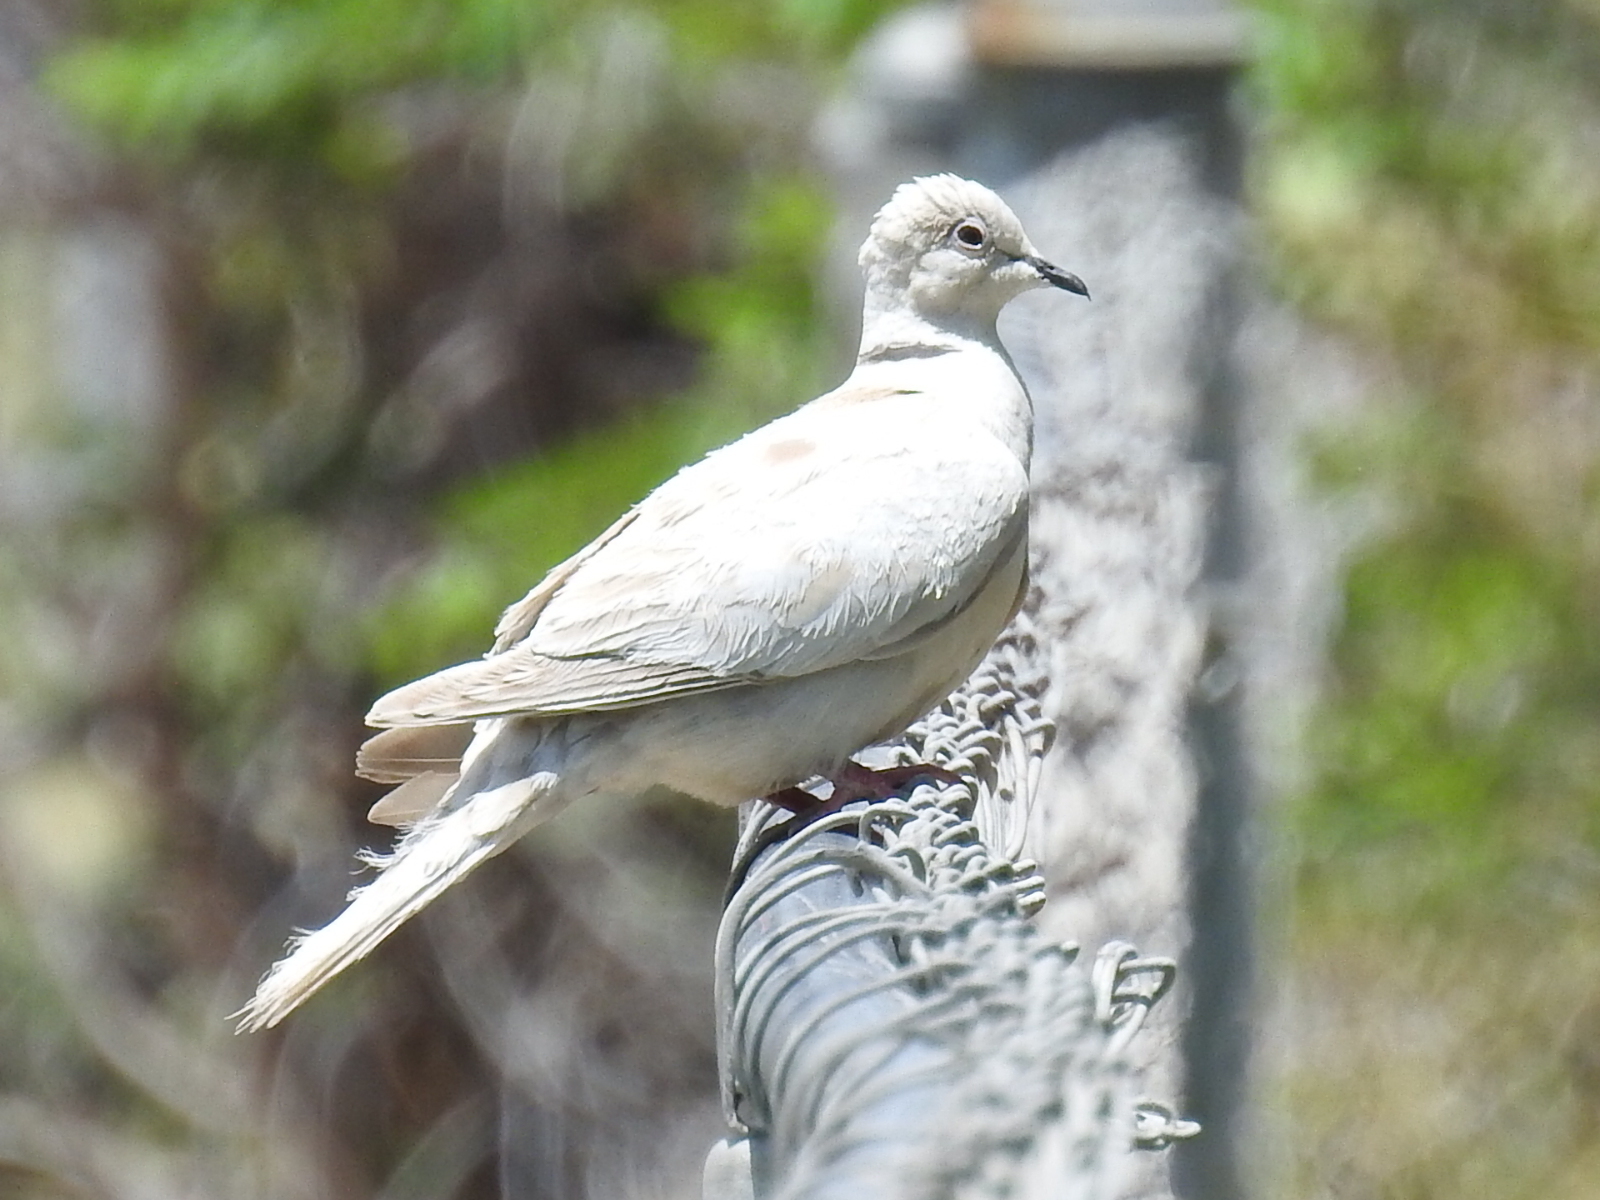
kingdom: Animalia
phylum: Chordata
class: Aves
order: Columbiformes
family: Columbidae
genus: Streptopelia
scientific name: Streptopelia decaocto
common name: Eurasian collared dove
